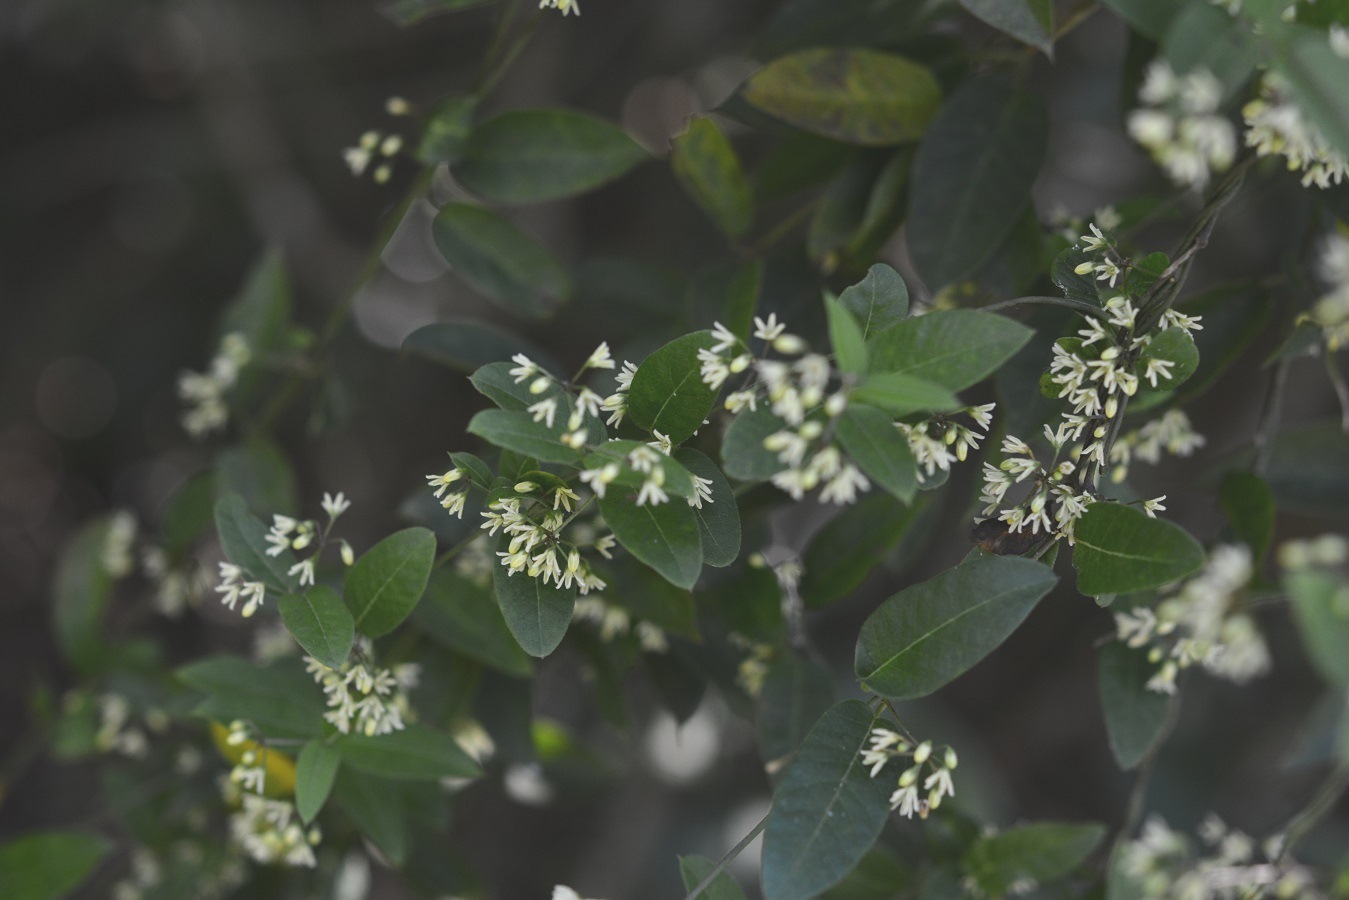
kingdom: Plantae
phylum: Tracheophyta
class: Magnoliopsida
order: Gentianales
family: Apocynaceae
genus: Metastelma
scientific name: Metastelma californicum
